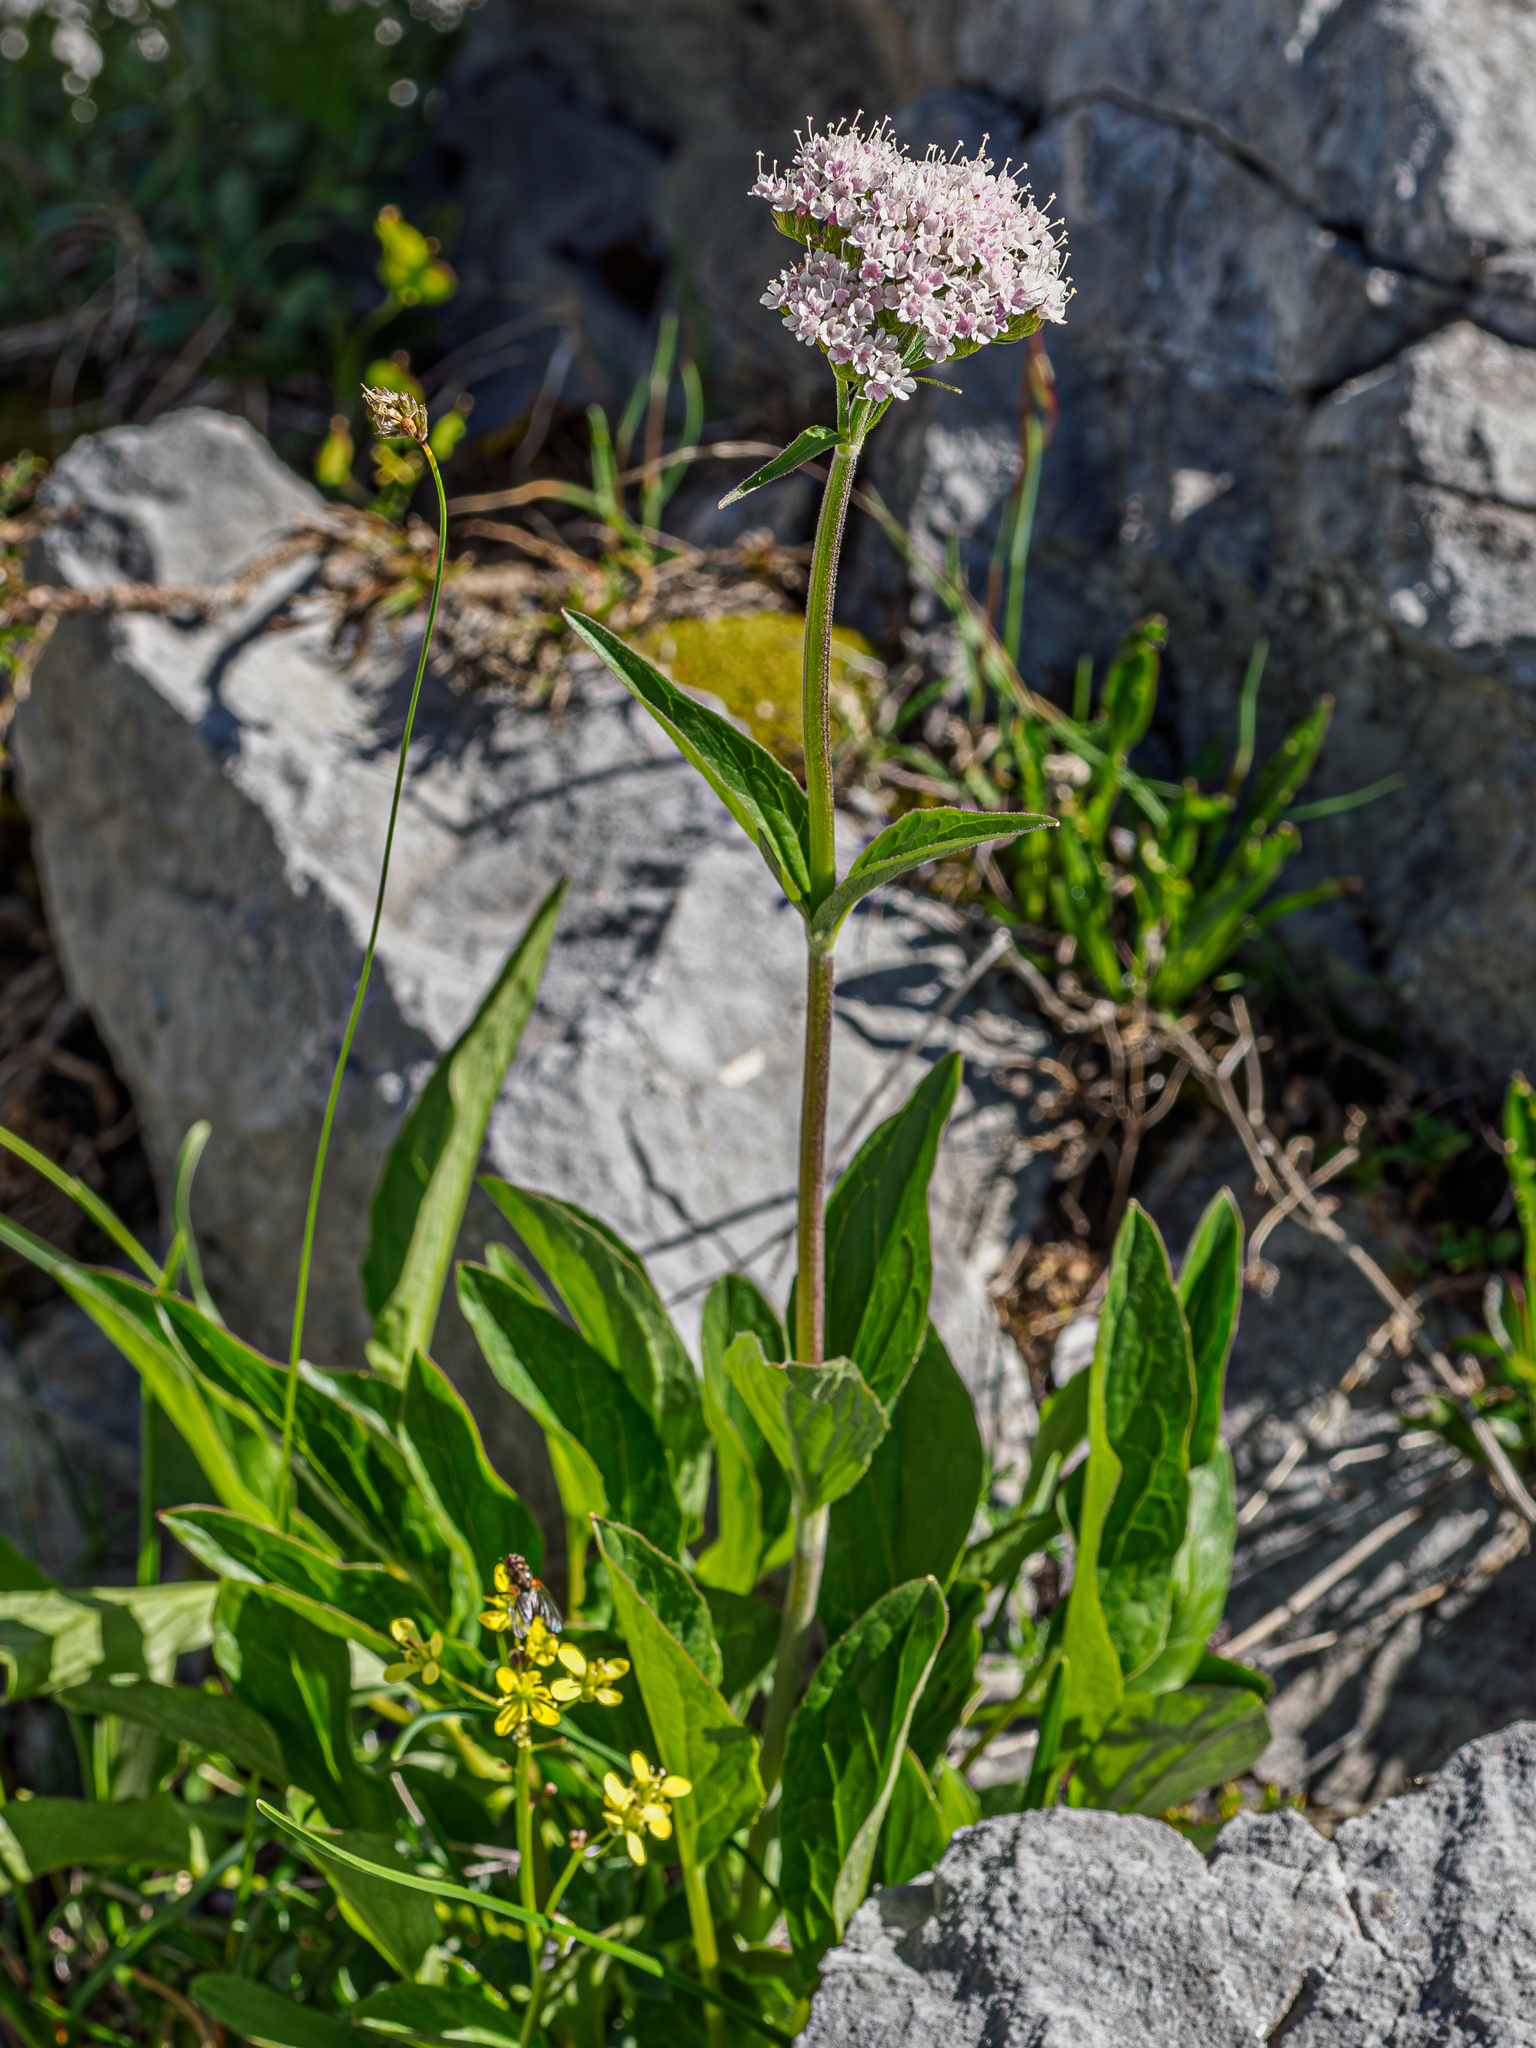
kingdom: Plantae
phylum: Tracheophyta
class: Magnoliopsida
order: Dipsacales
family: Caprifoliaceae
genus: Valeriana
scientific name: Valeriana montana
